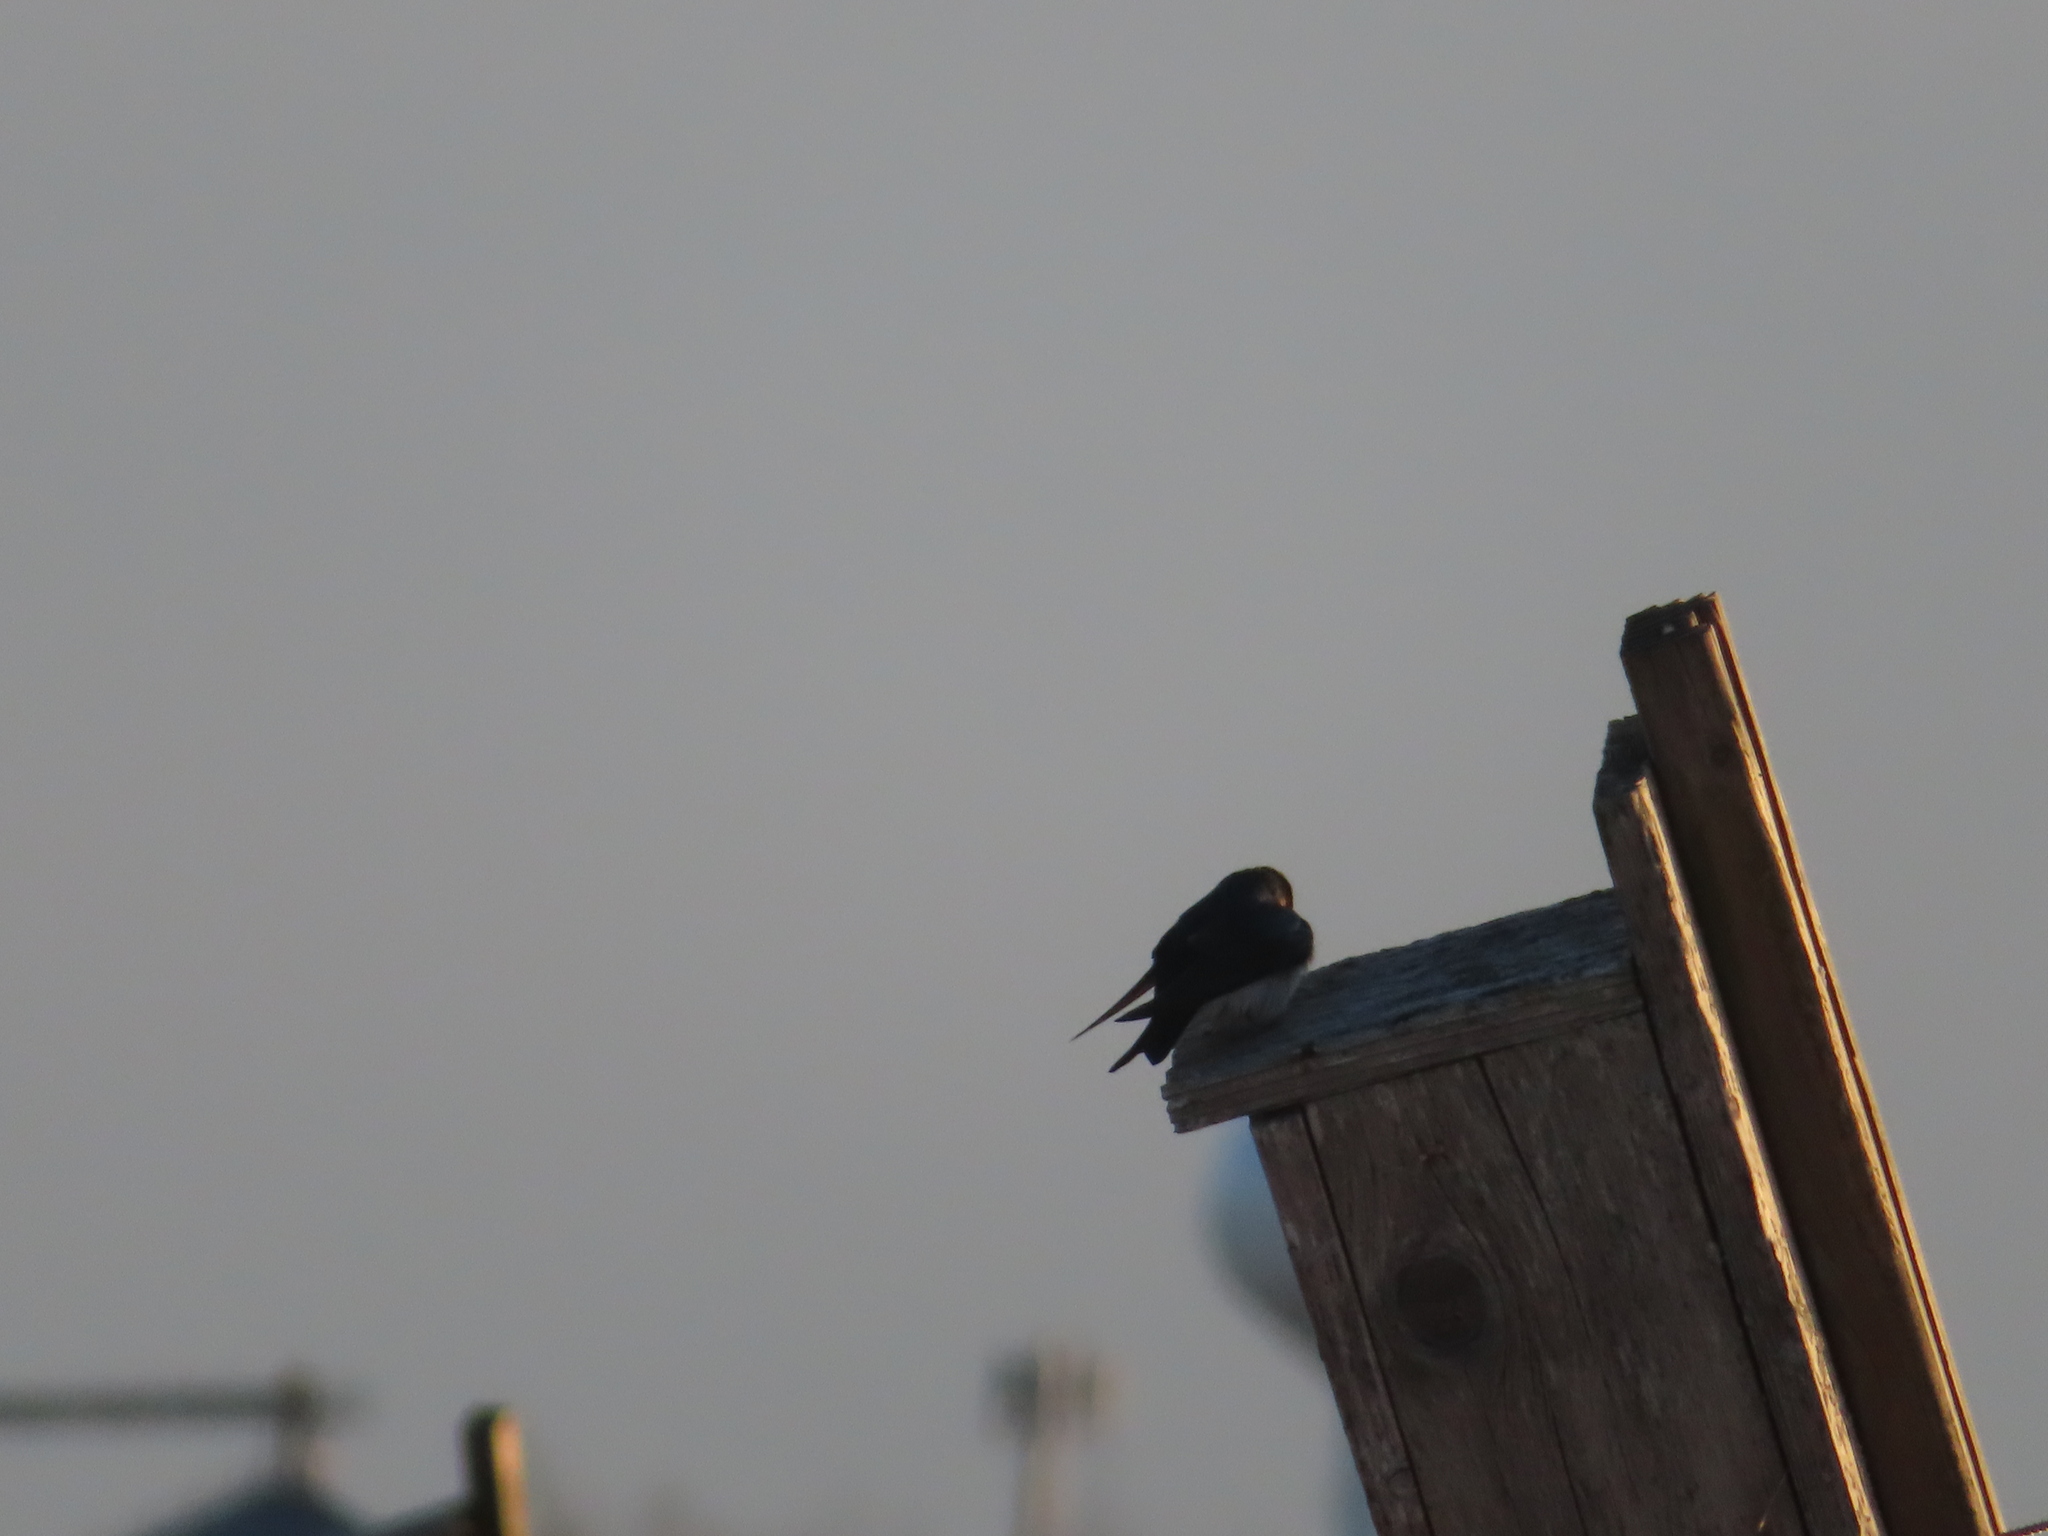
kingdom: Animalia
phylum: Chordata
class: Aves
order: Passeriformes
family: Hirundinidae
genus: Tachycineta
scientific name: Tachycineta bicolor
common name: Tree swallow
